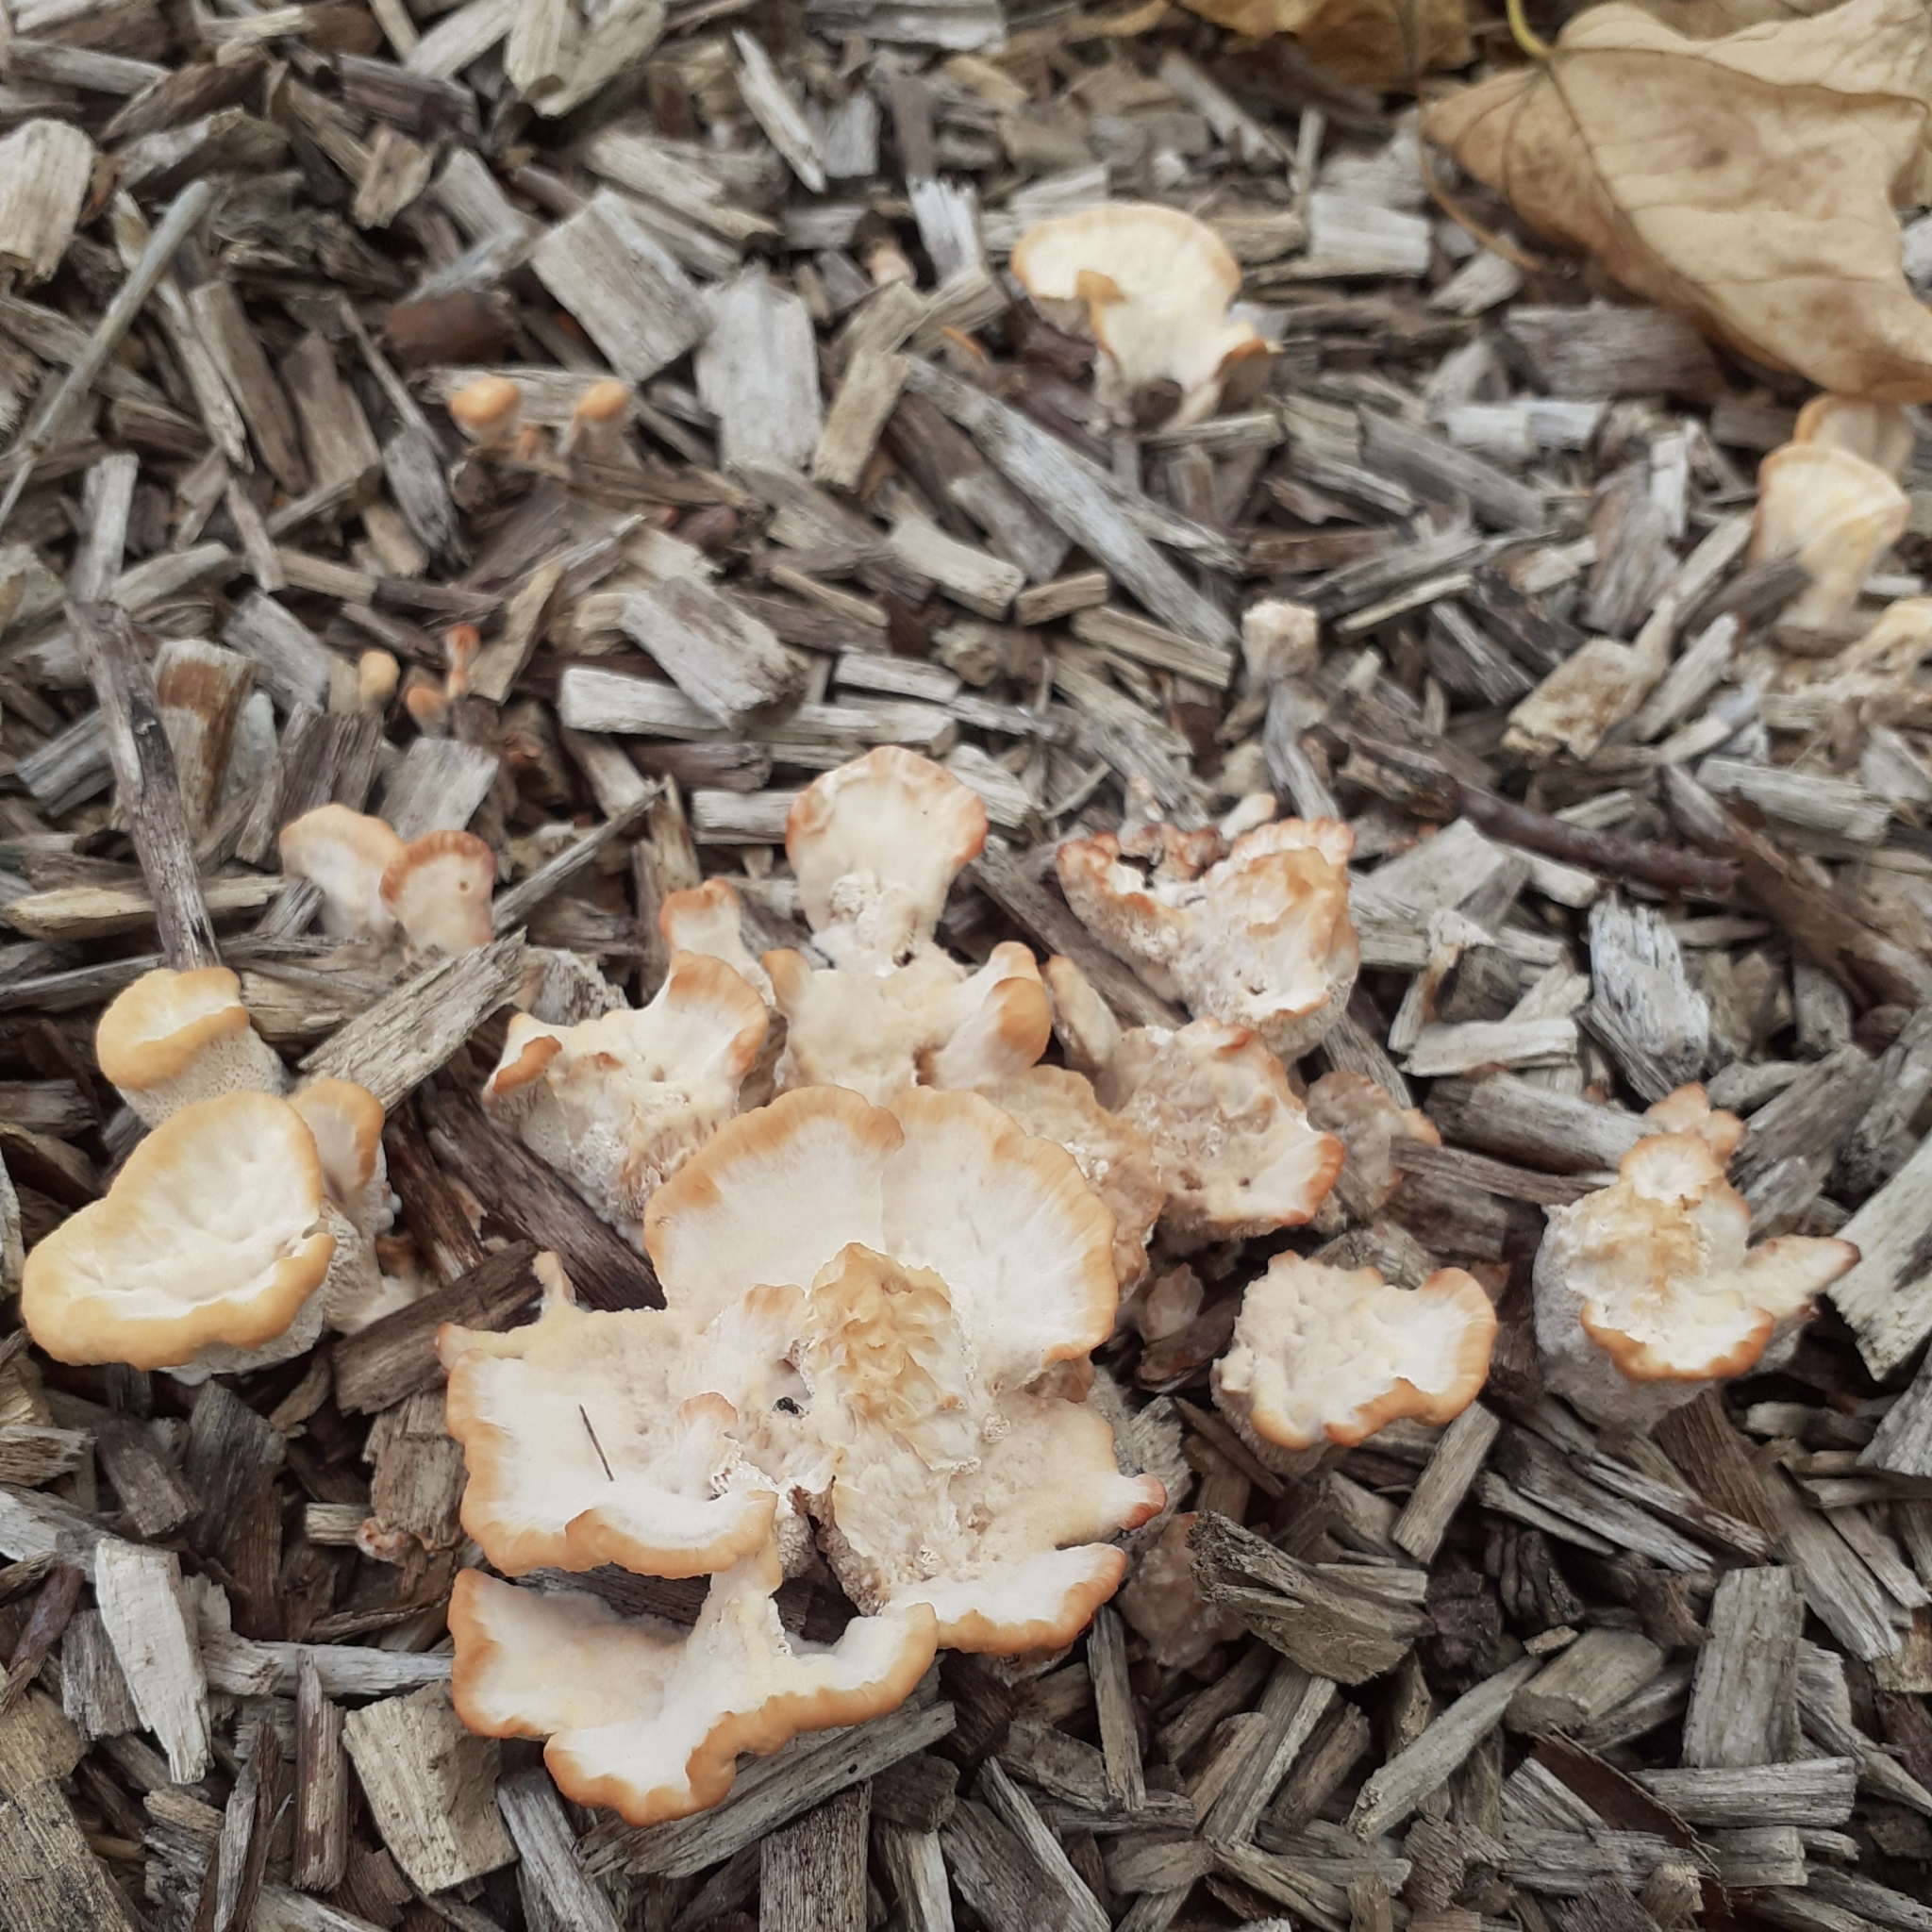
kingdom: Fungi
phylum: Basidiomycota
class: Agaricomycetes
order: Polyporales
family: Podoscyphaceae
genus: Abortiporus
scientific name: Abortiporus biennis
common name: Blushing rosette
